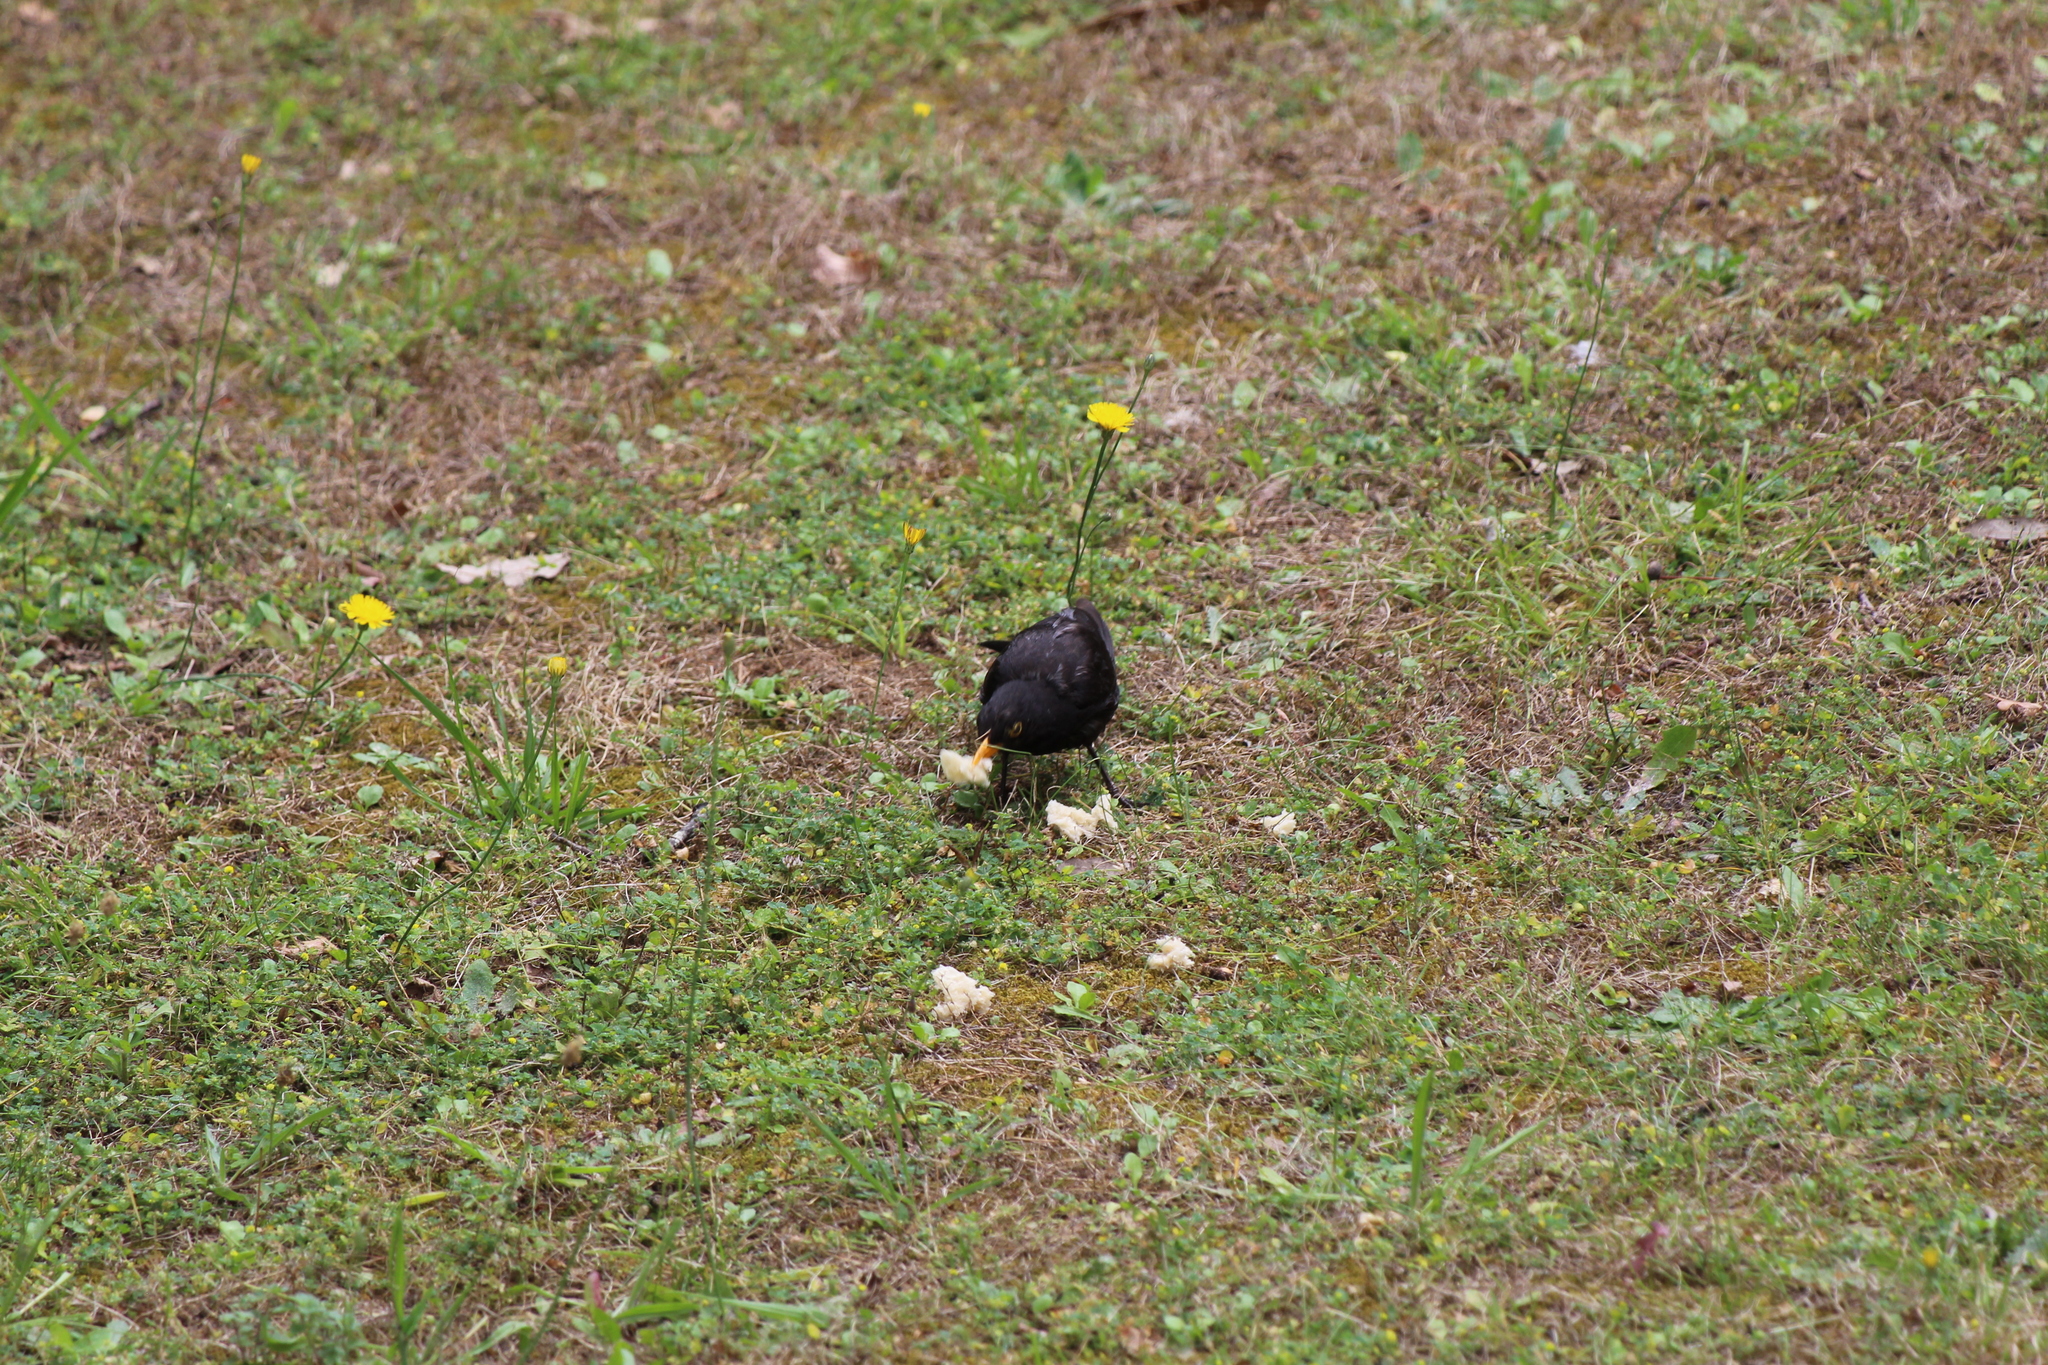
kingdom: Animalia
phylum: Chordata
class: Aves
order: Passeriformes
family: Turdidae
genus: Turdus
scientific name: Turdus merula
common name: Common blackbird
